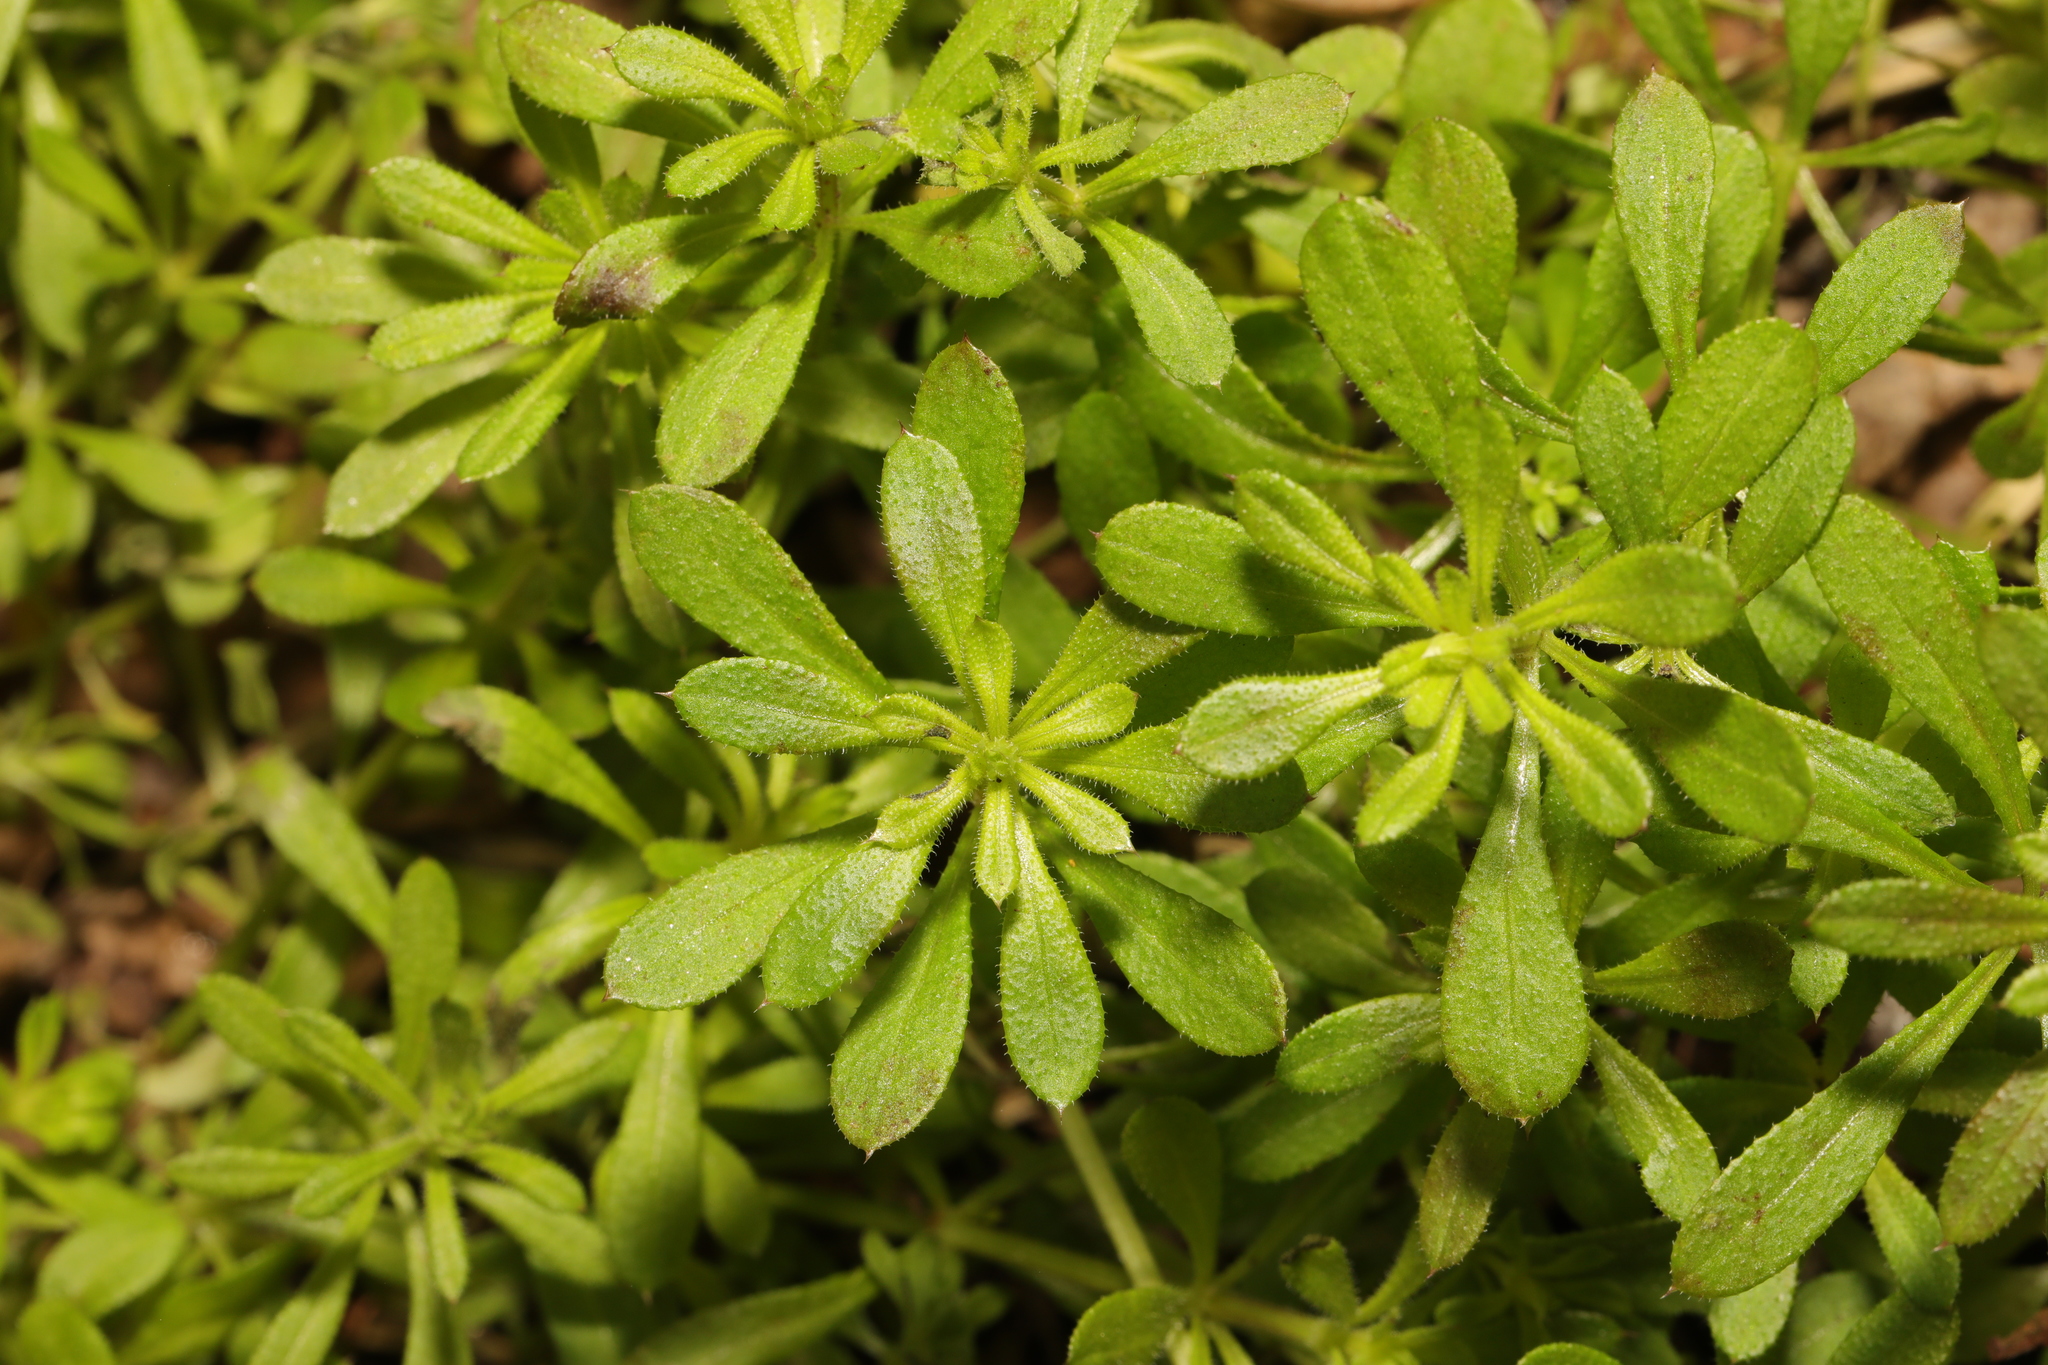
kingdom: Plantae
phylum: Tracheophyta
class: Magnoliopsida
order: Gentianales
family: Rubiaceae
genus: Galium
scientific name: Galium aparine
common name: Cleavers
